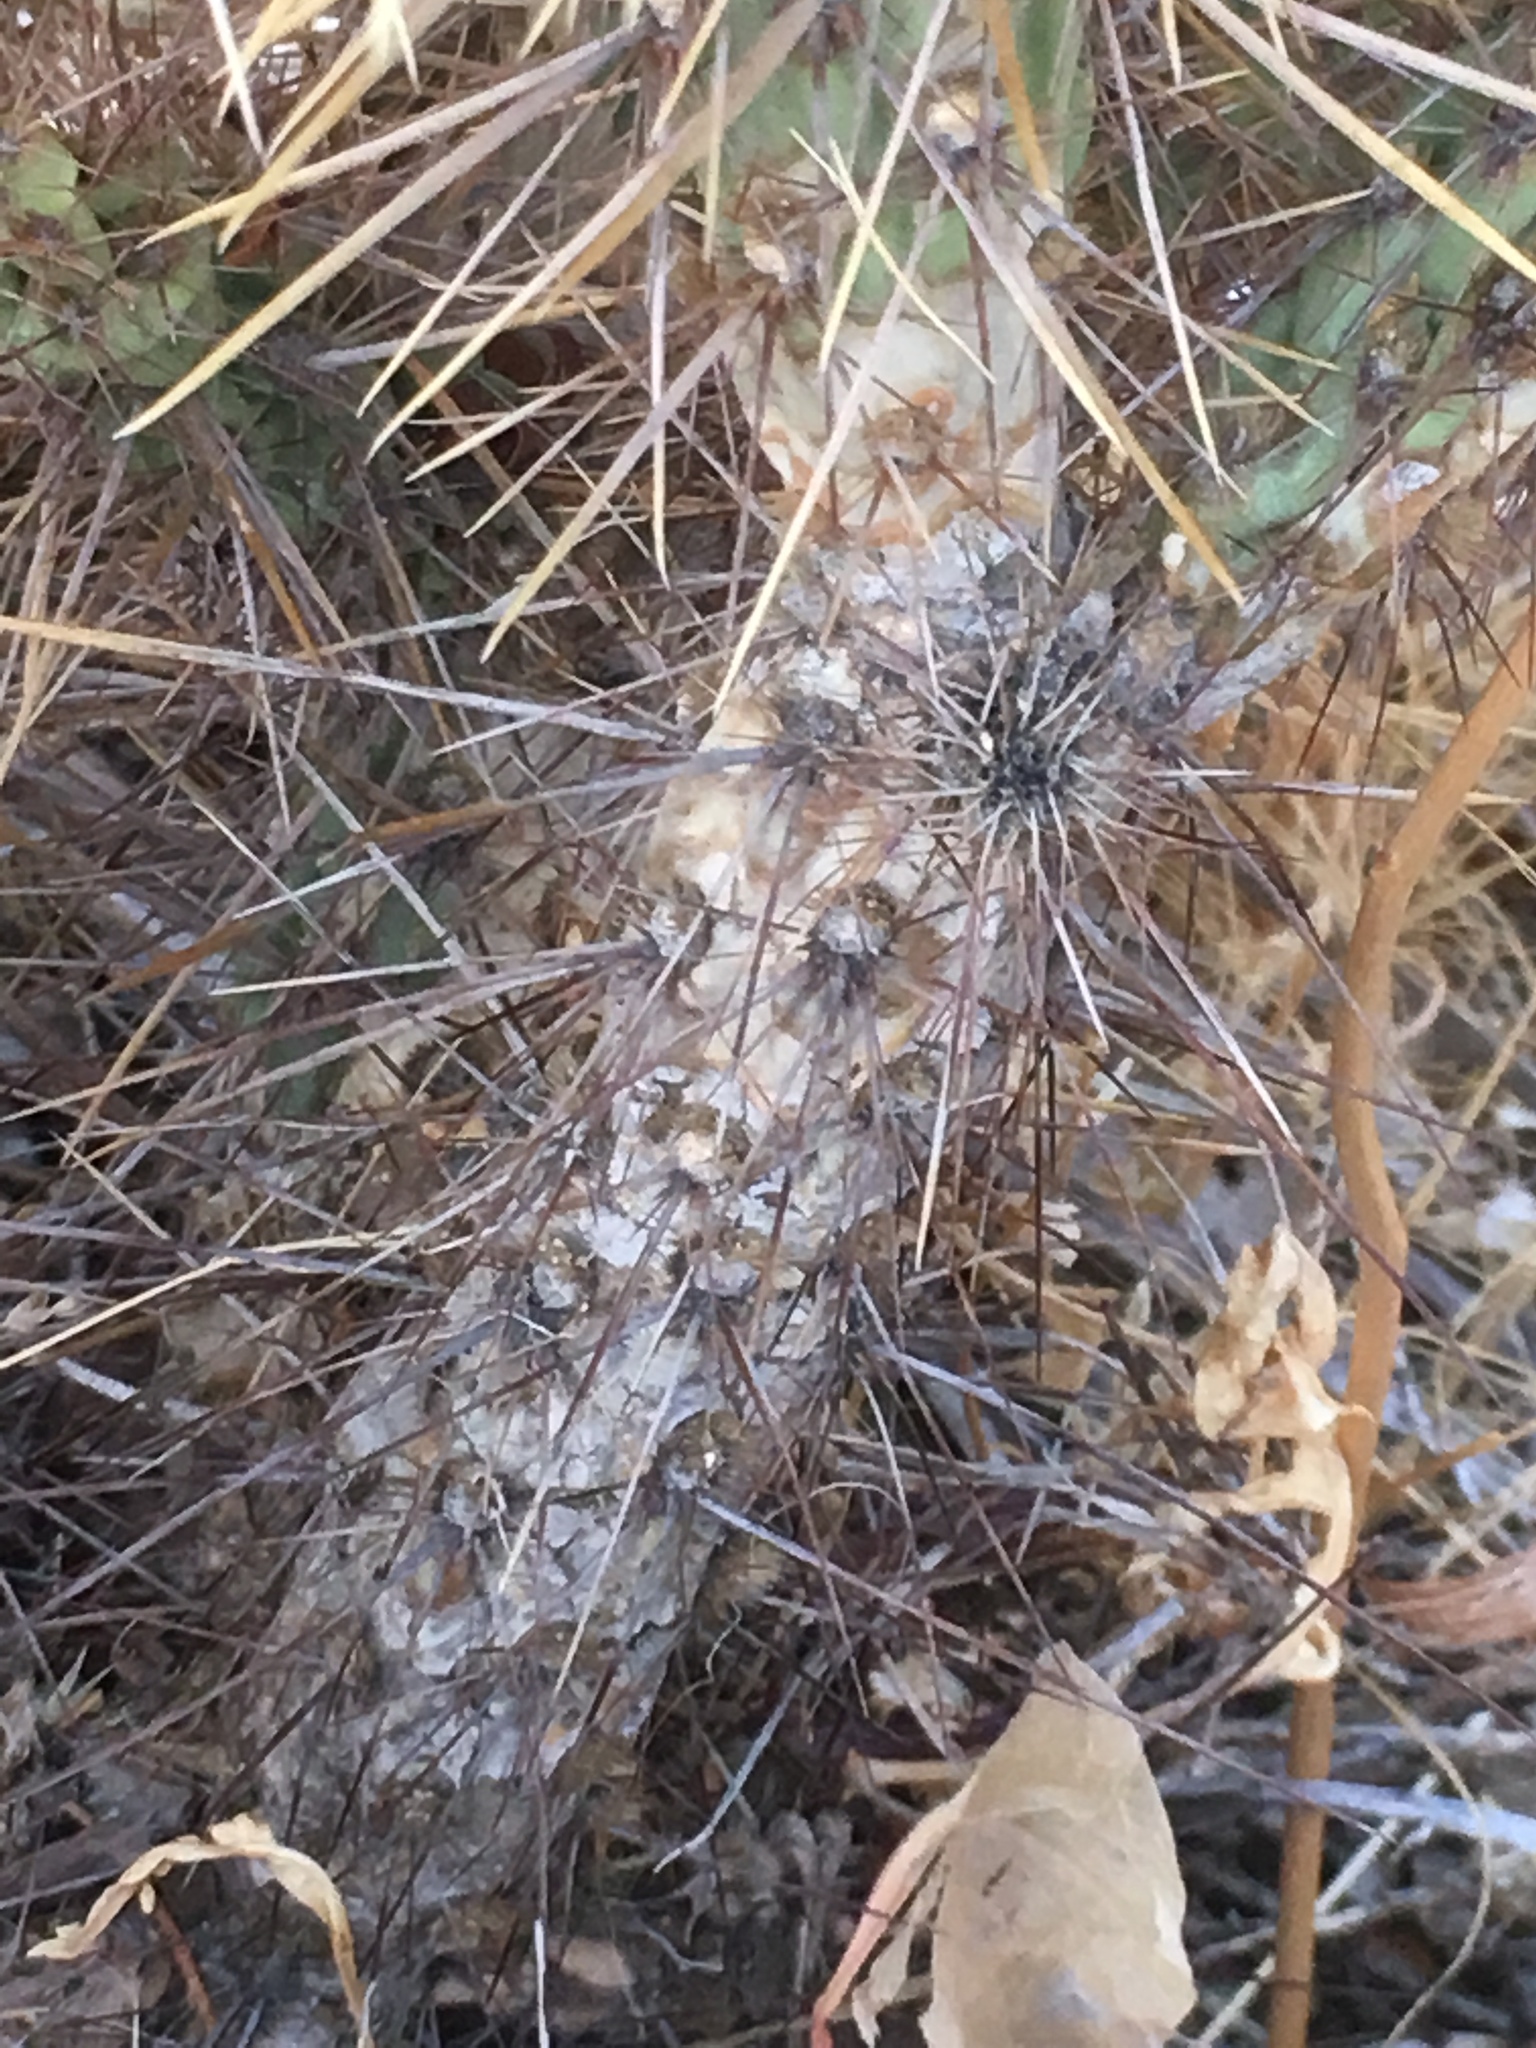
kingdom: Plantae
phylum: Tracheophyta
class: Magnoliopsida
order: Caryophyllales
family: Cactaceae
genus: Cylindropuntia
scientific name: Cylindropuntia echinocarpa
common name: Ground cholla
